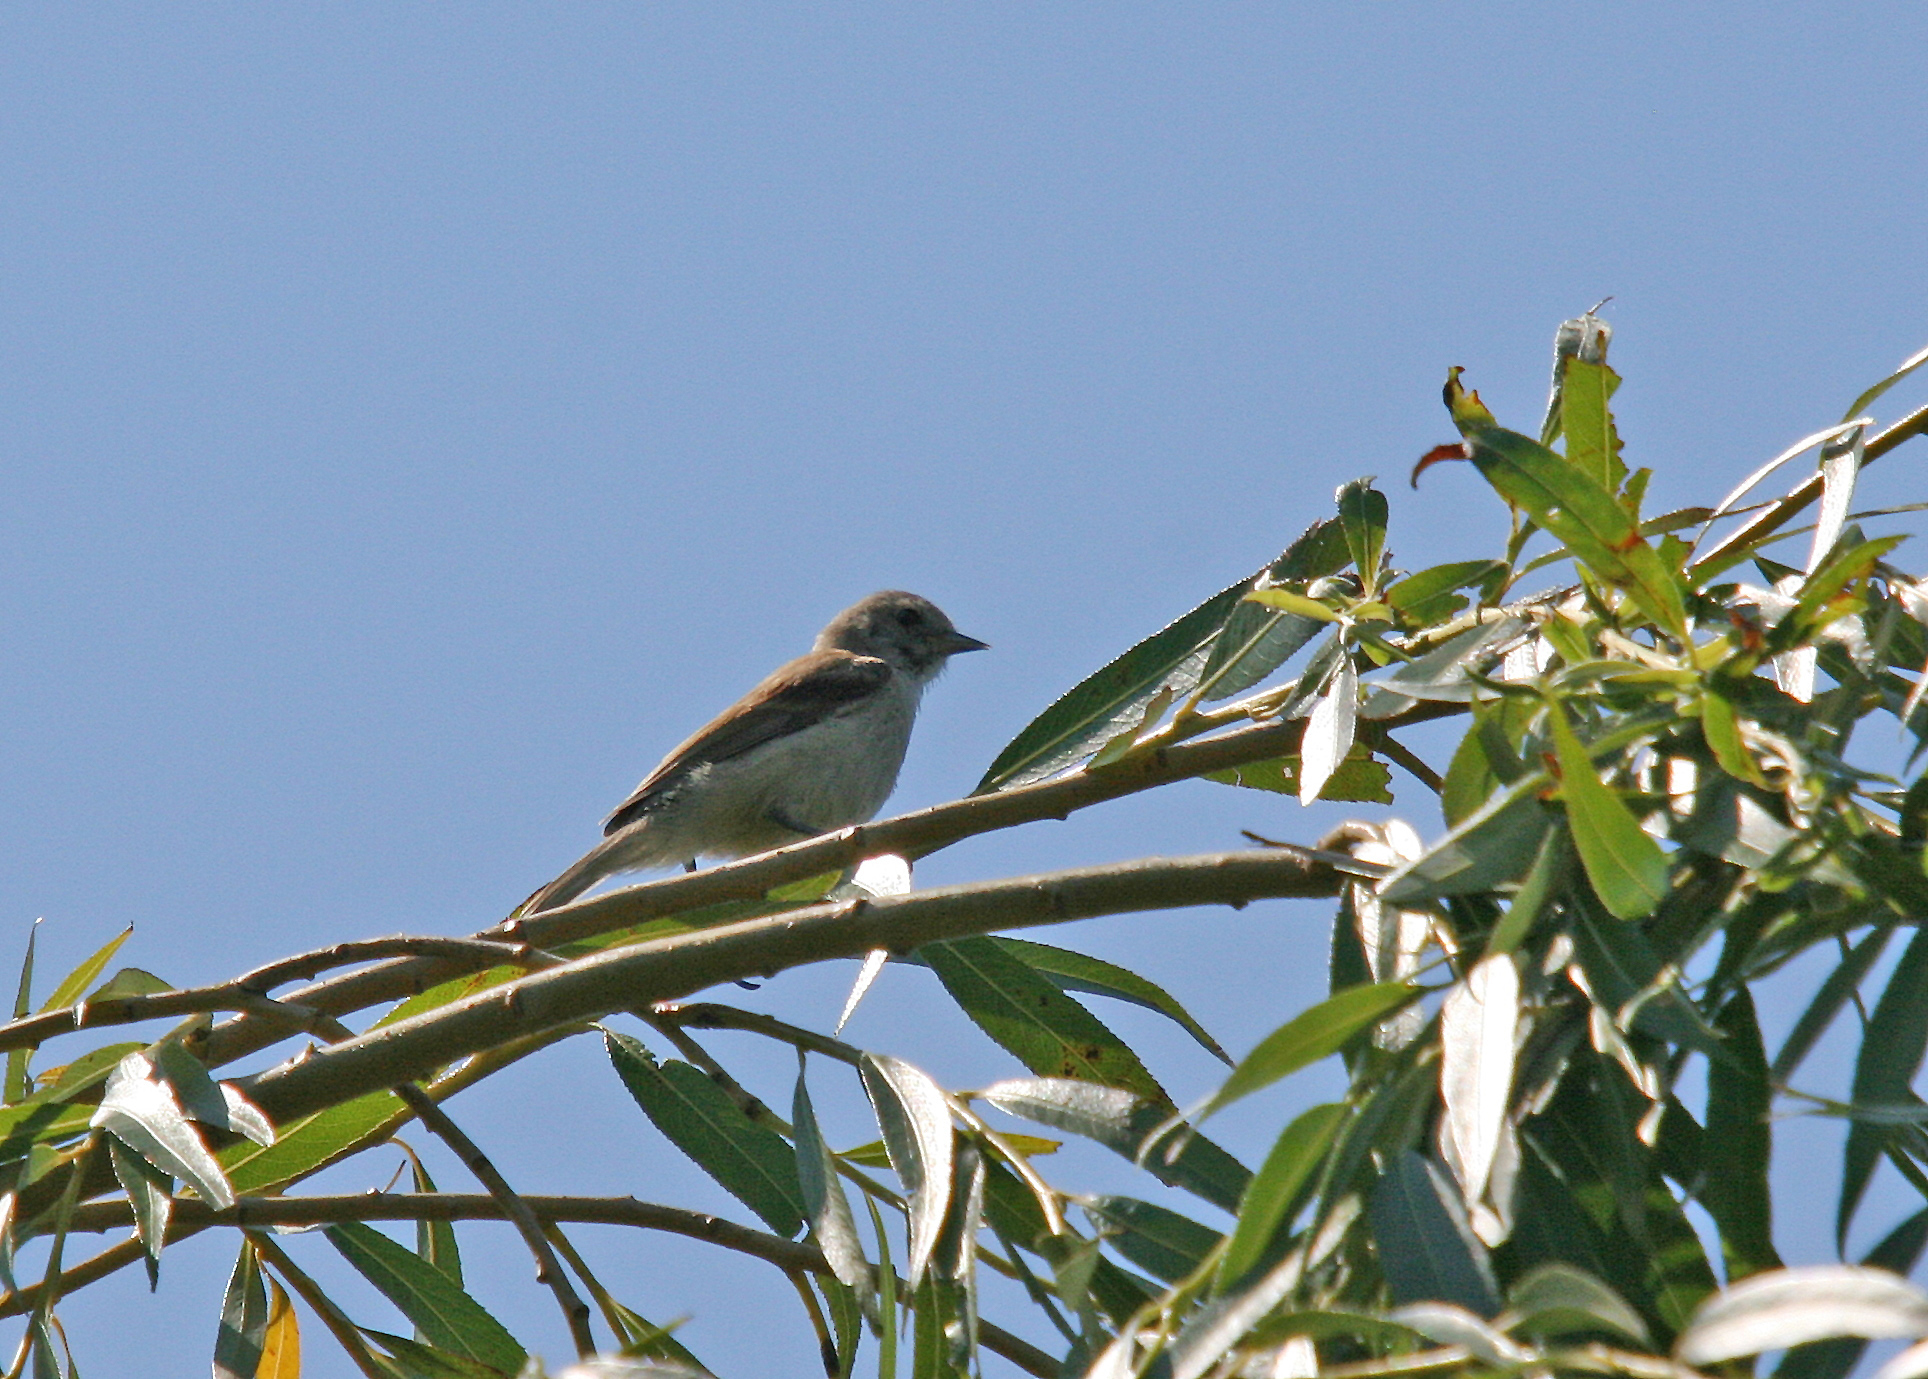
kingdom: Animalia
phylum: Chordata
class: Aves
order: Passeriformes
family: Remizidae
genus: Remiz
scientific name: Remiz pendulinus
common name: Eurasian penduline tit
